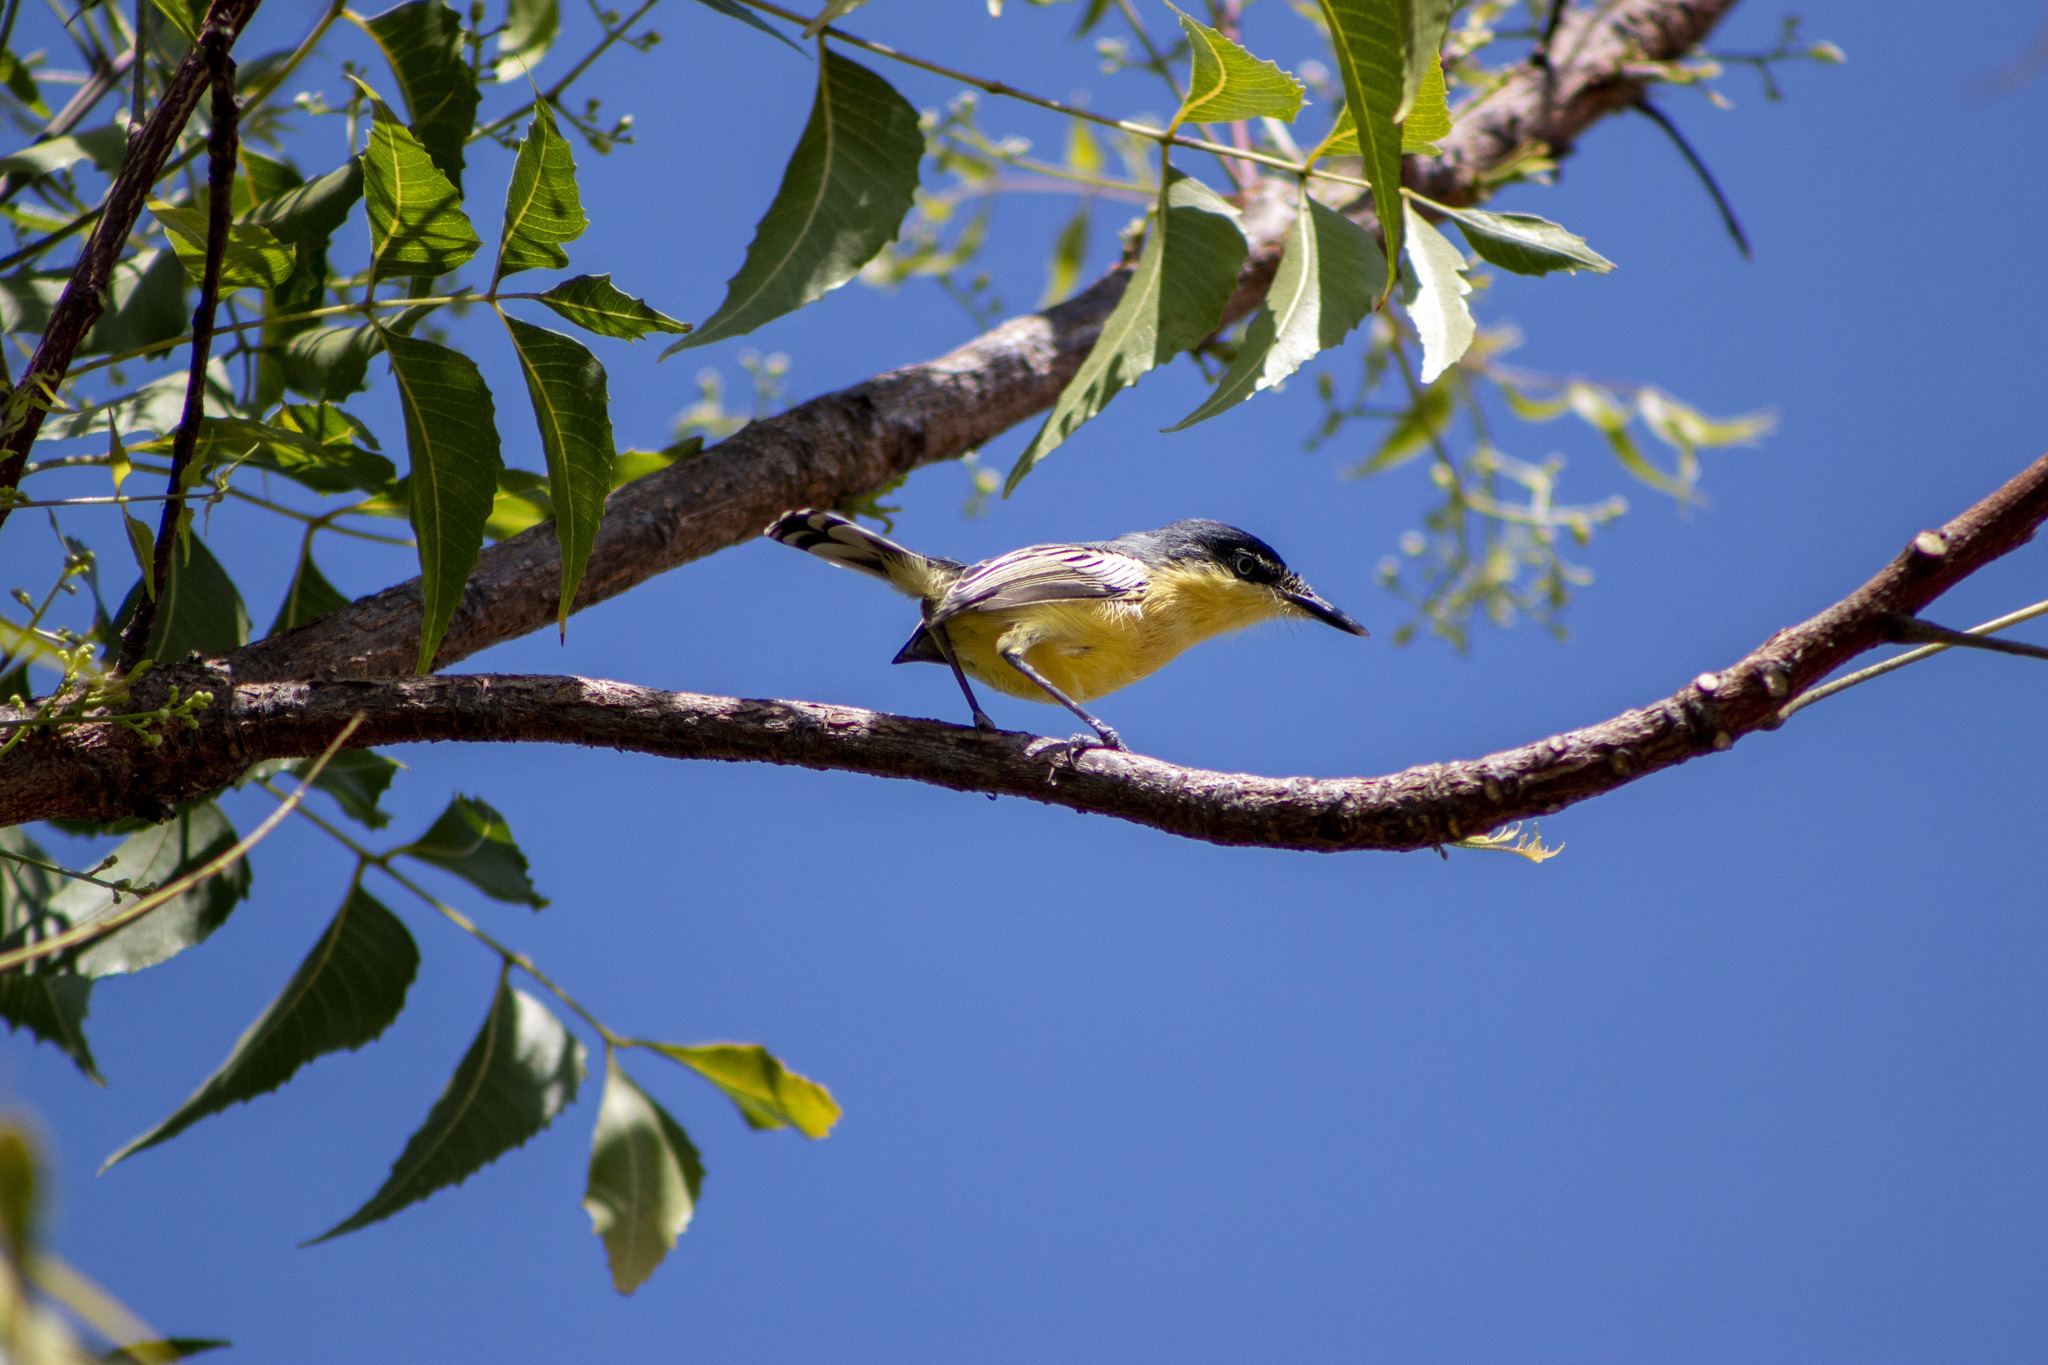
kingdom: Animalia
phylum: Chordata
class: Aves
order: Passeriformes
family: Tyrannidae
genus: Todirostrum
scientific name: Todirostrum cinereum
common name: Common tody-flycatcher
